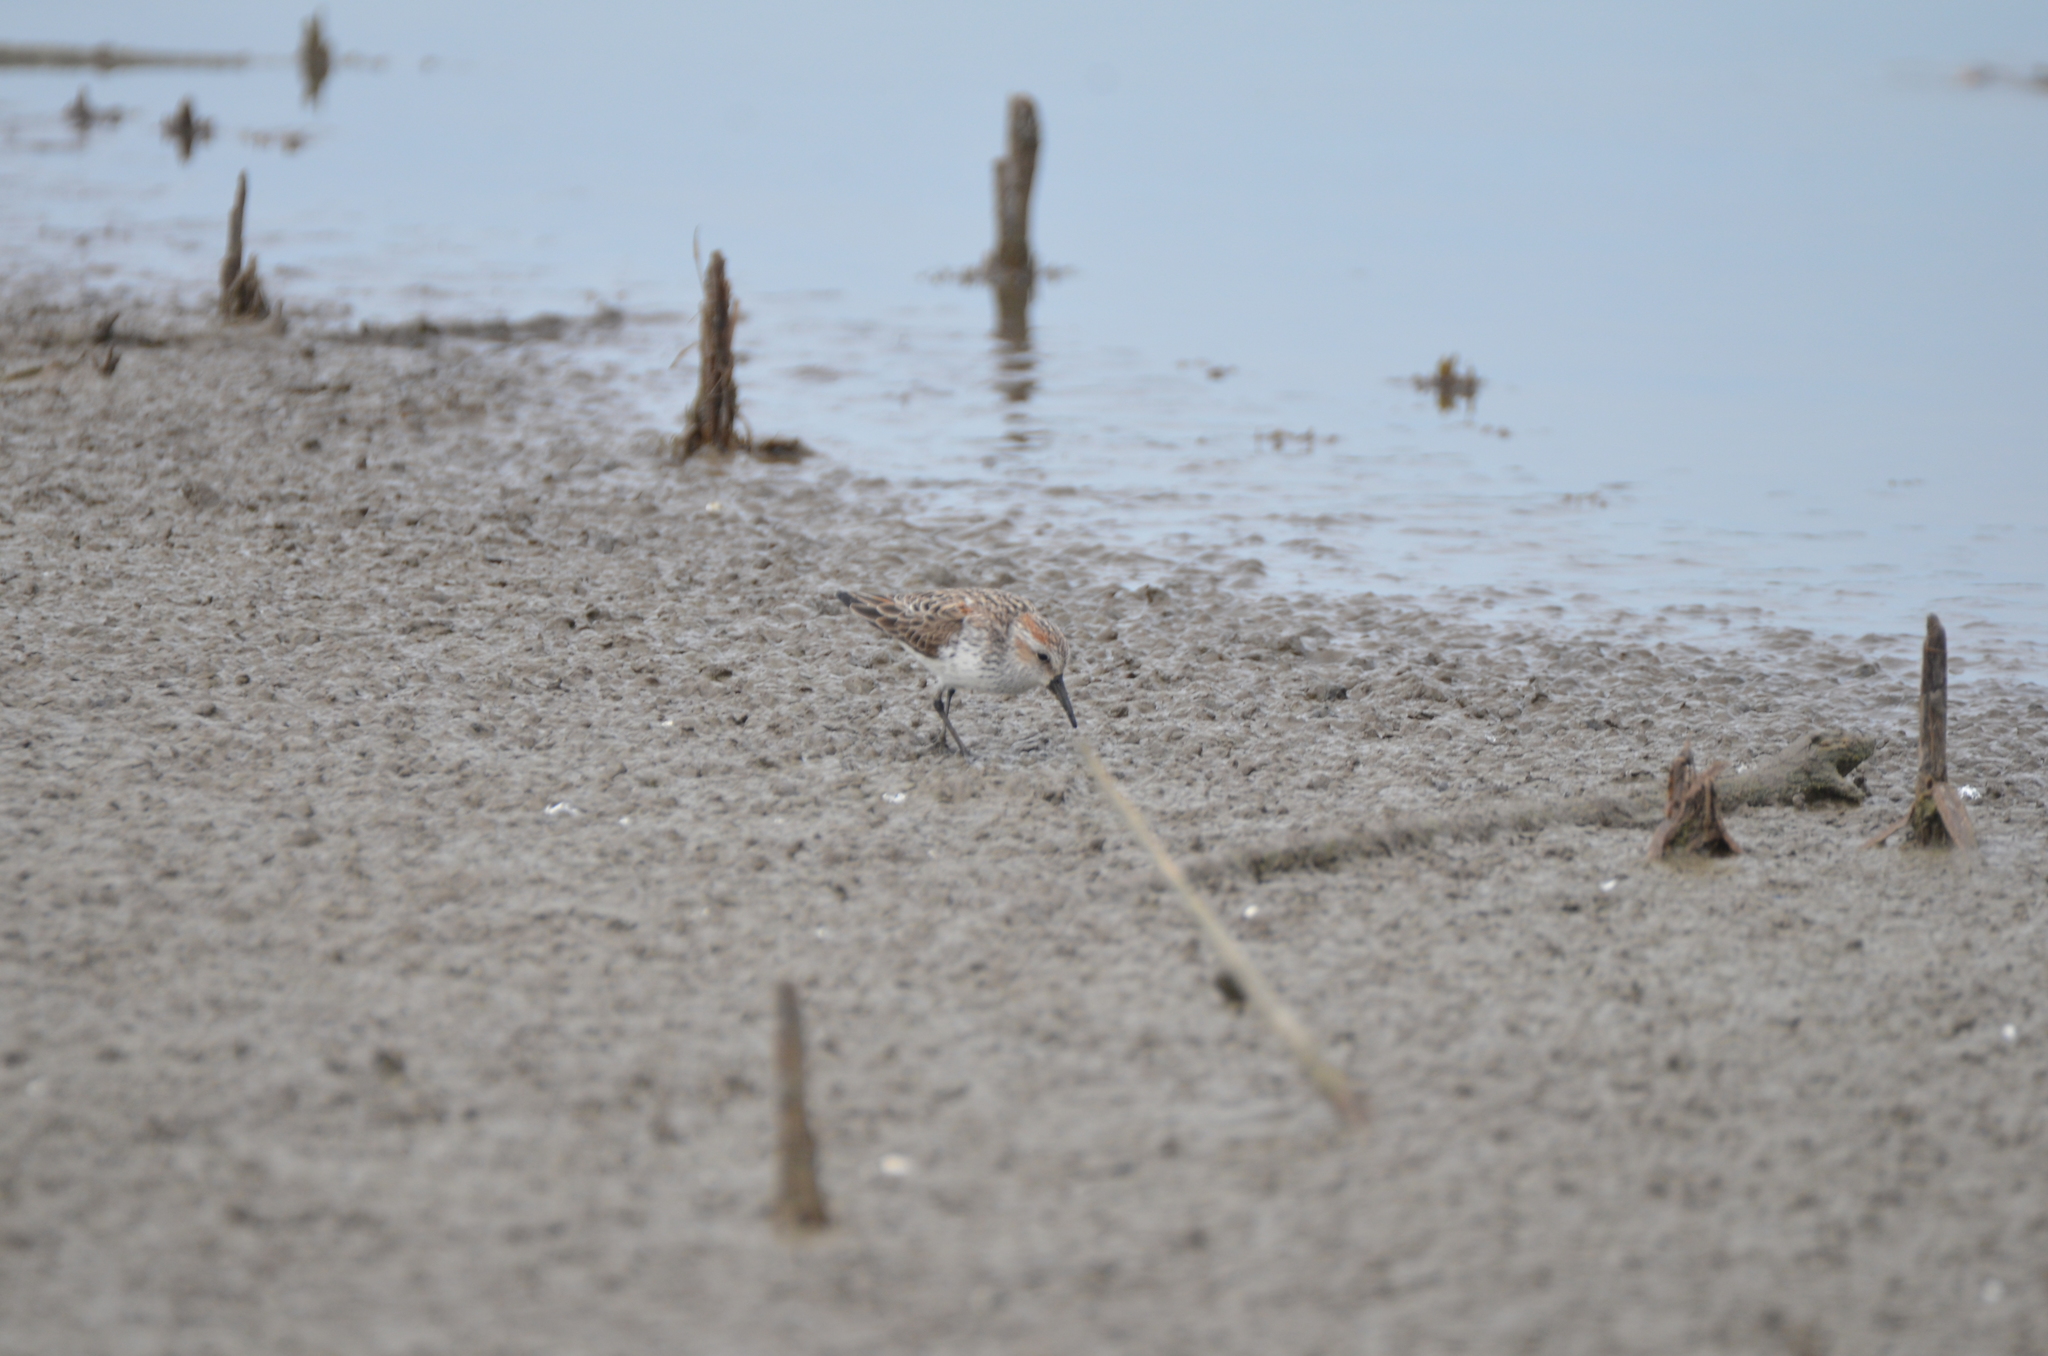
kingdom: Animalia
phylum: Chordata
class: Aves
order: Charadriiformes
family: Scolopacidae
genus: Calidris
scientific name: Calidris mauri
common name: Western sandpiper
